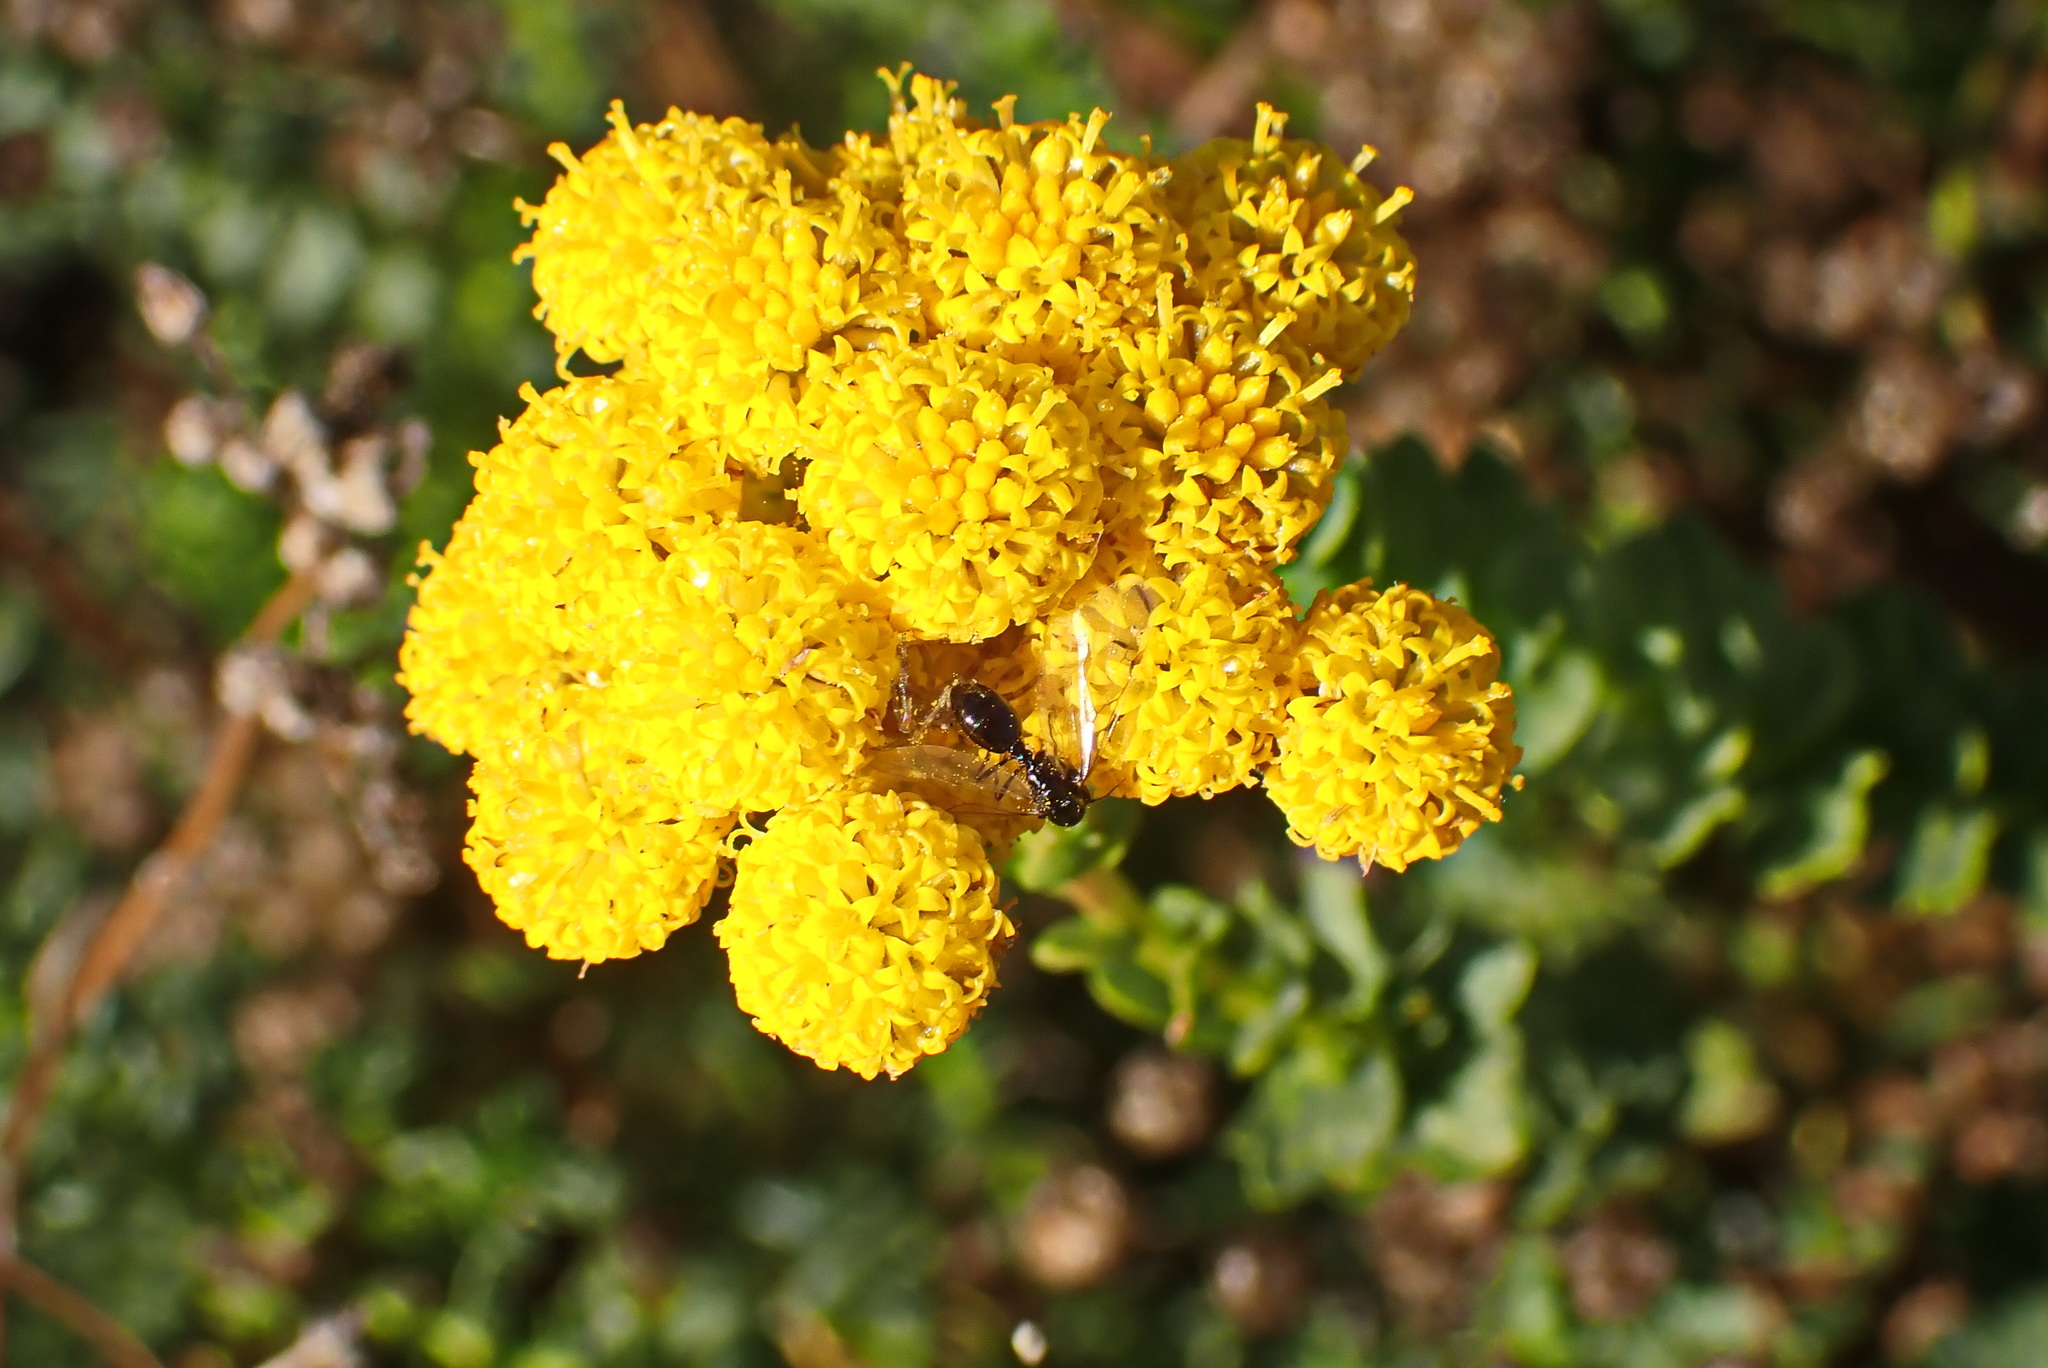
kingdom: Plantae
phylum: Tracheophyta
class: Magnoliopsida
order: Asterales
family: Asteraceae
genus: Athanasia
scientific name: Athanasia trifurcata
